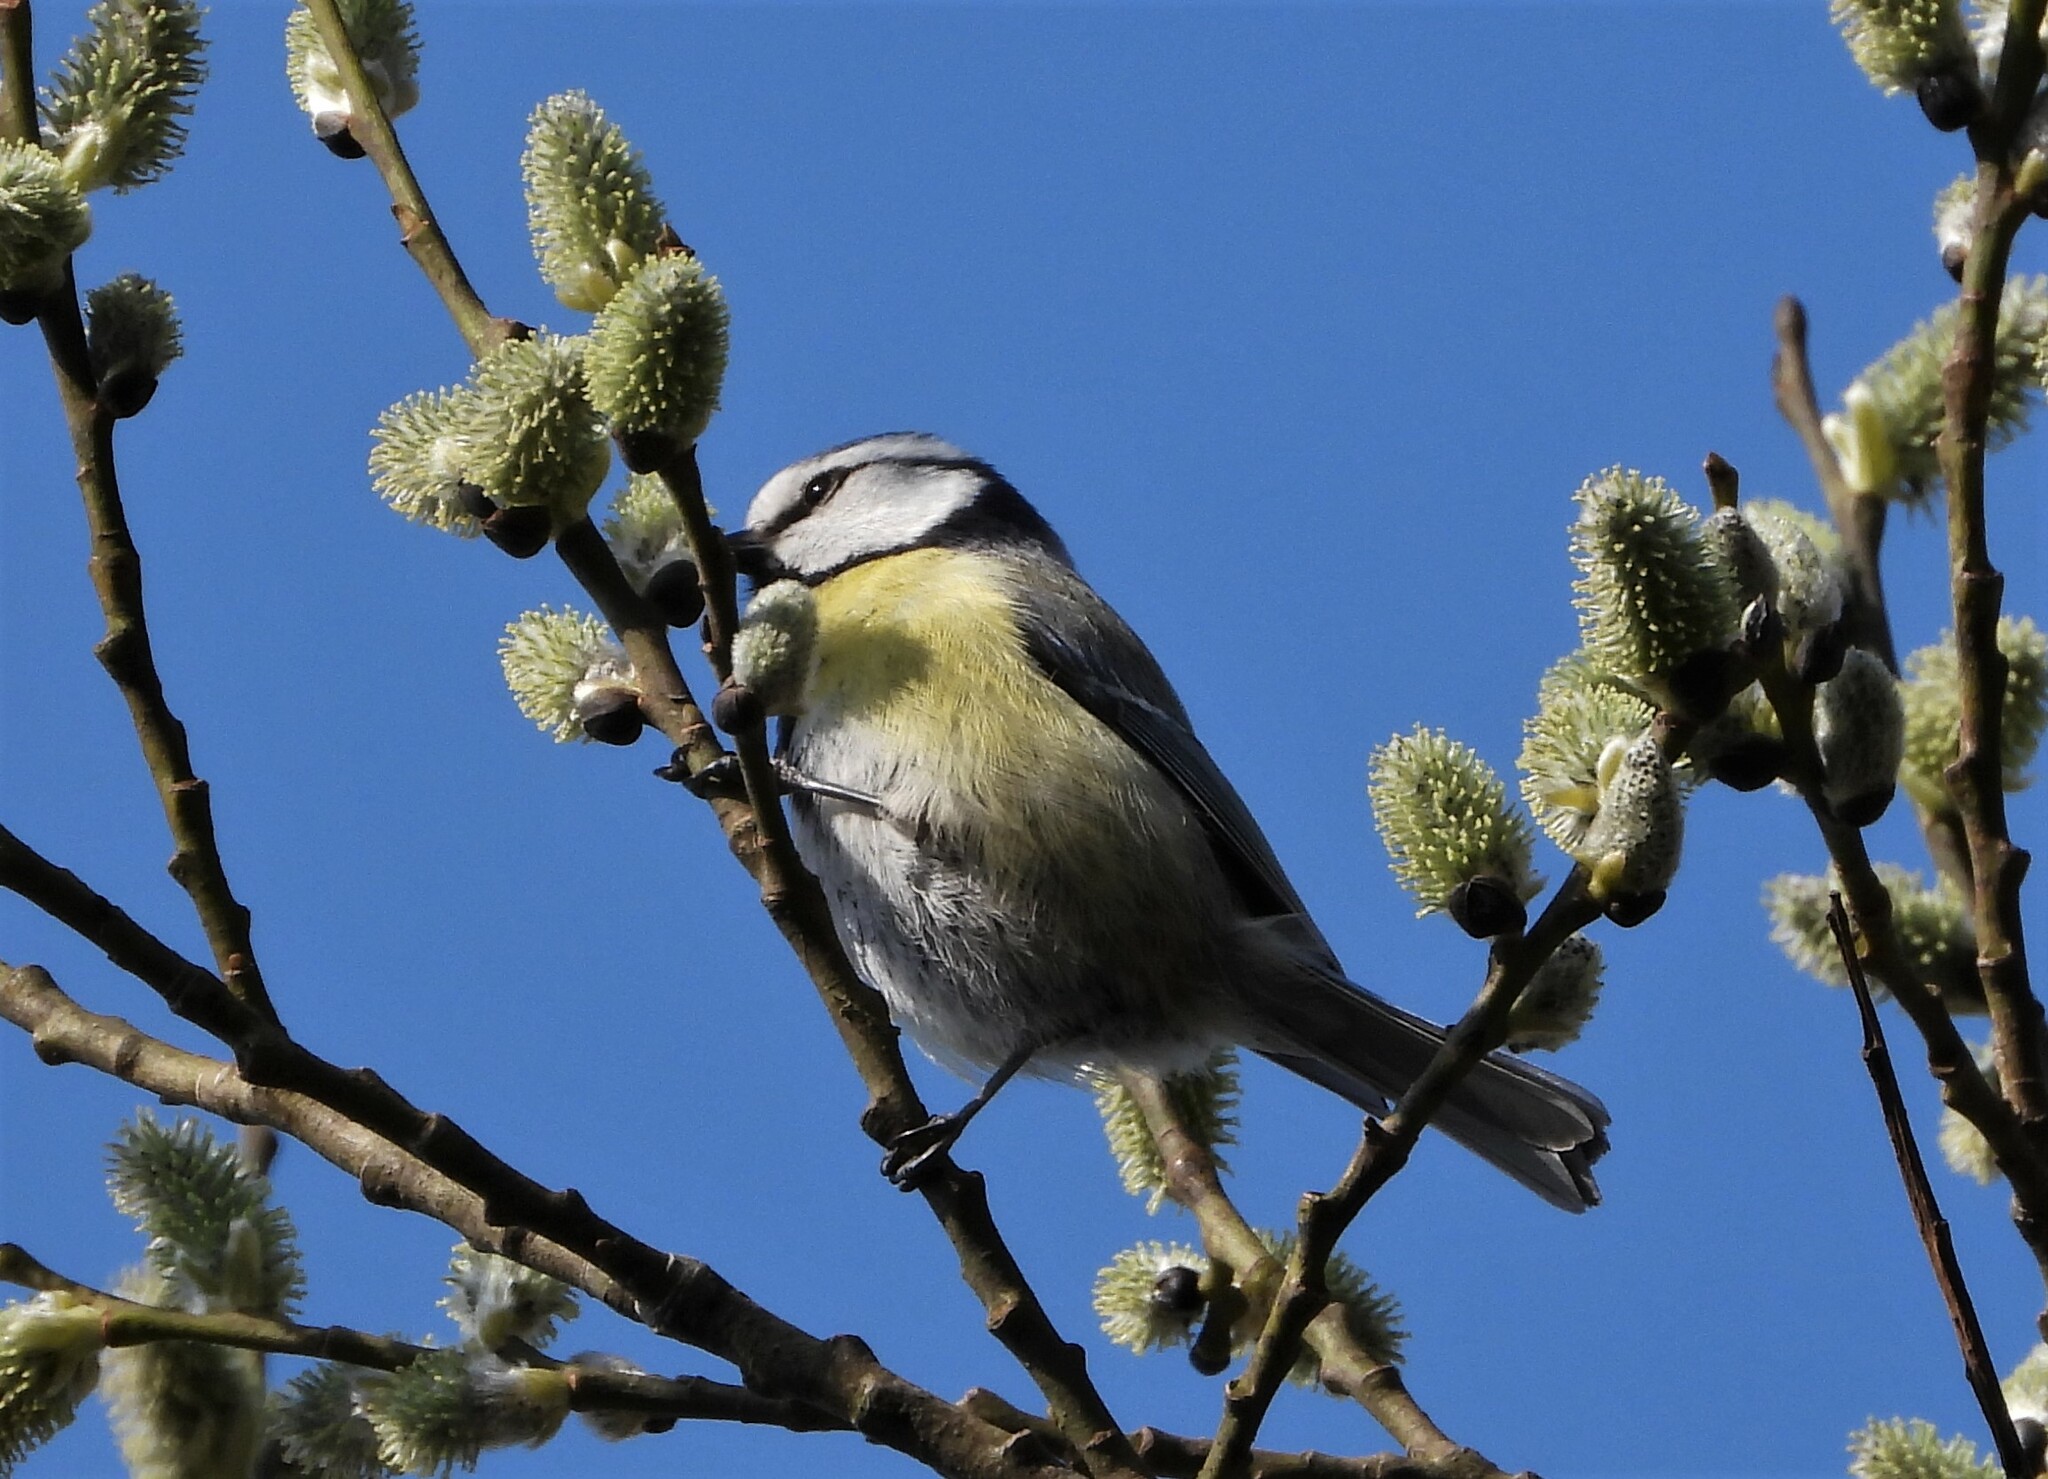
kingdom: Animalia
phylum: Chordata
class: Aves
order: Passeriformes
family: Paridae
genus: Cyanistes
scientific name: Cyanistes caeruleus
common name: Eurasian blue tit
